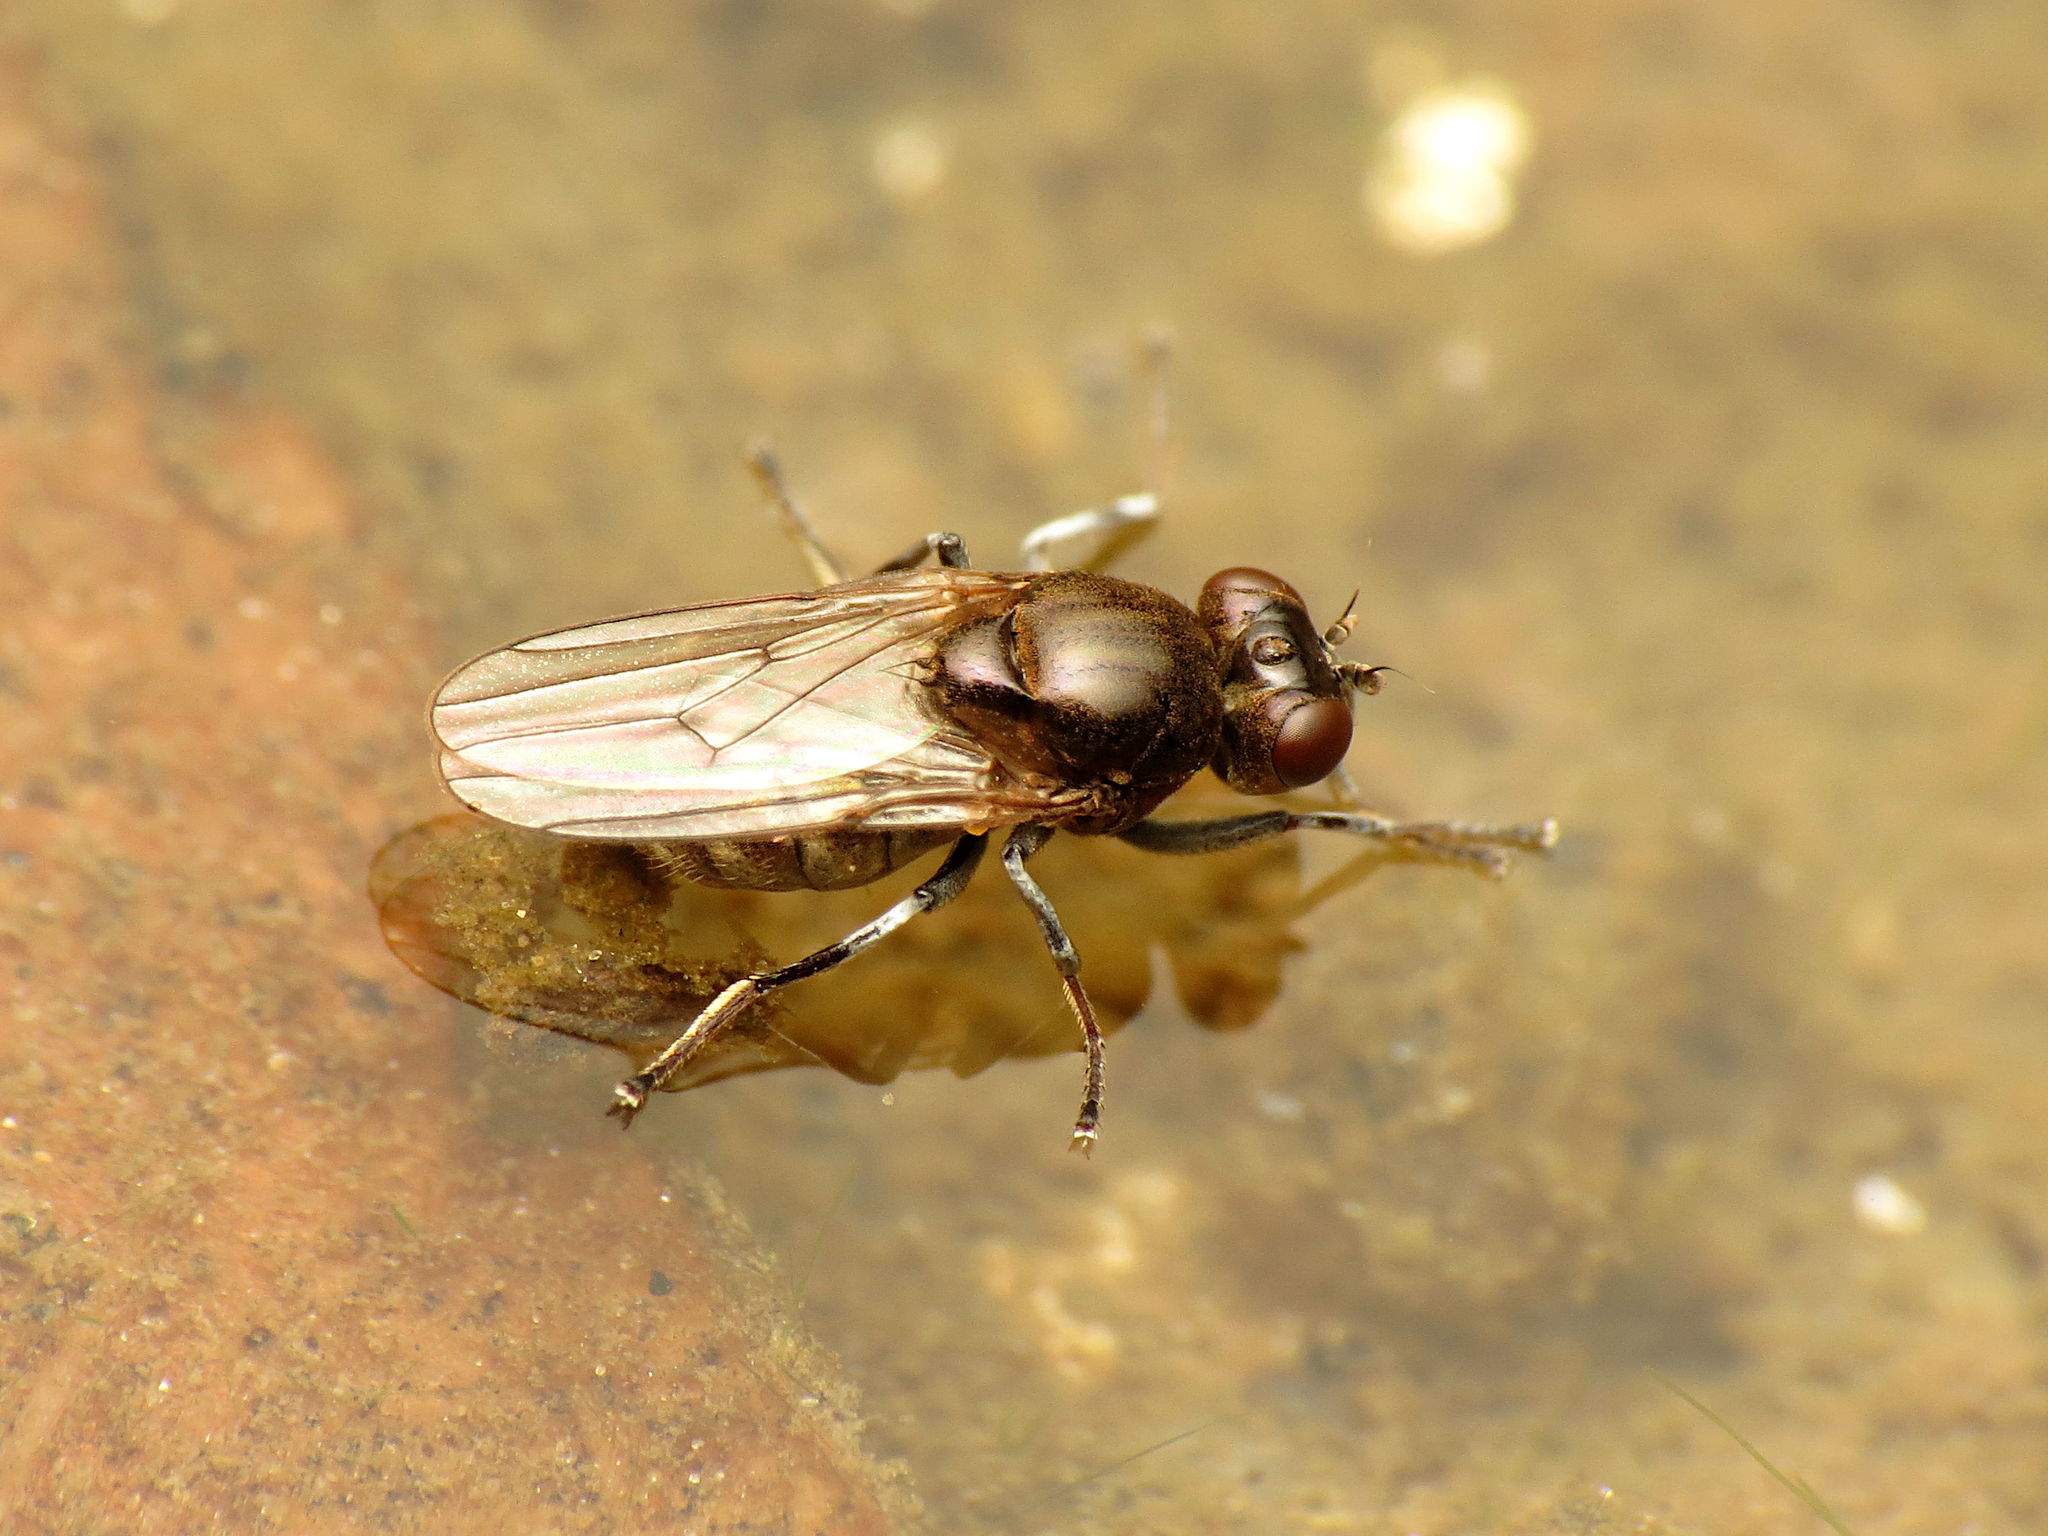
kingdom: Animalia
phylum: Arthropoda
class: Insecta
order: Diptera
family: Ephydridae
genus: Parydra
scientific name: Parydra quadrituberculata
